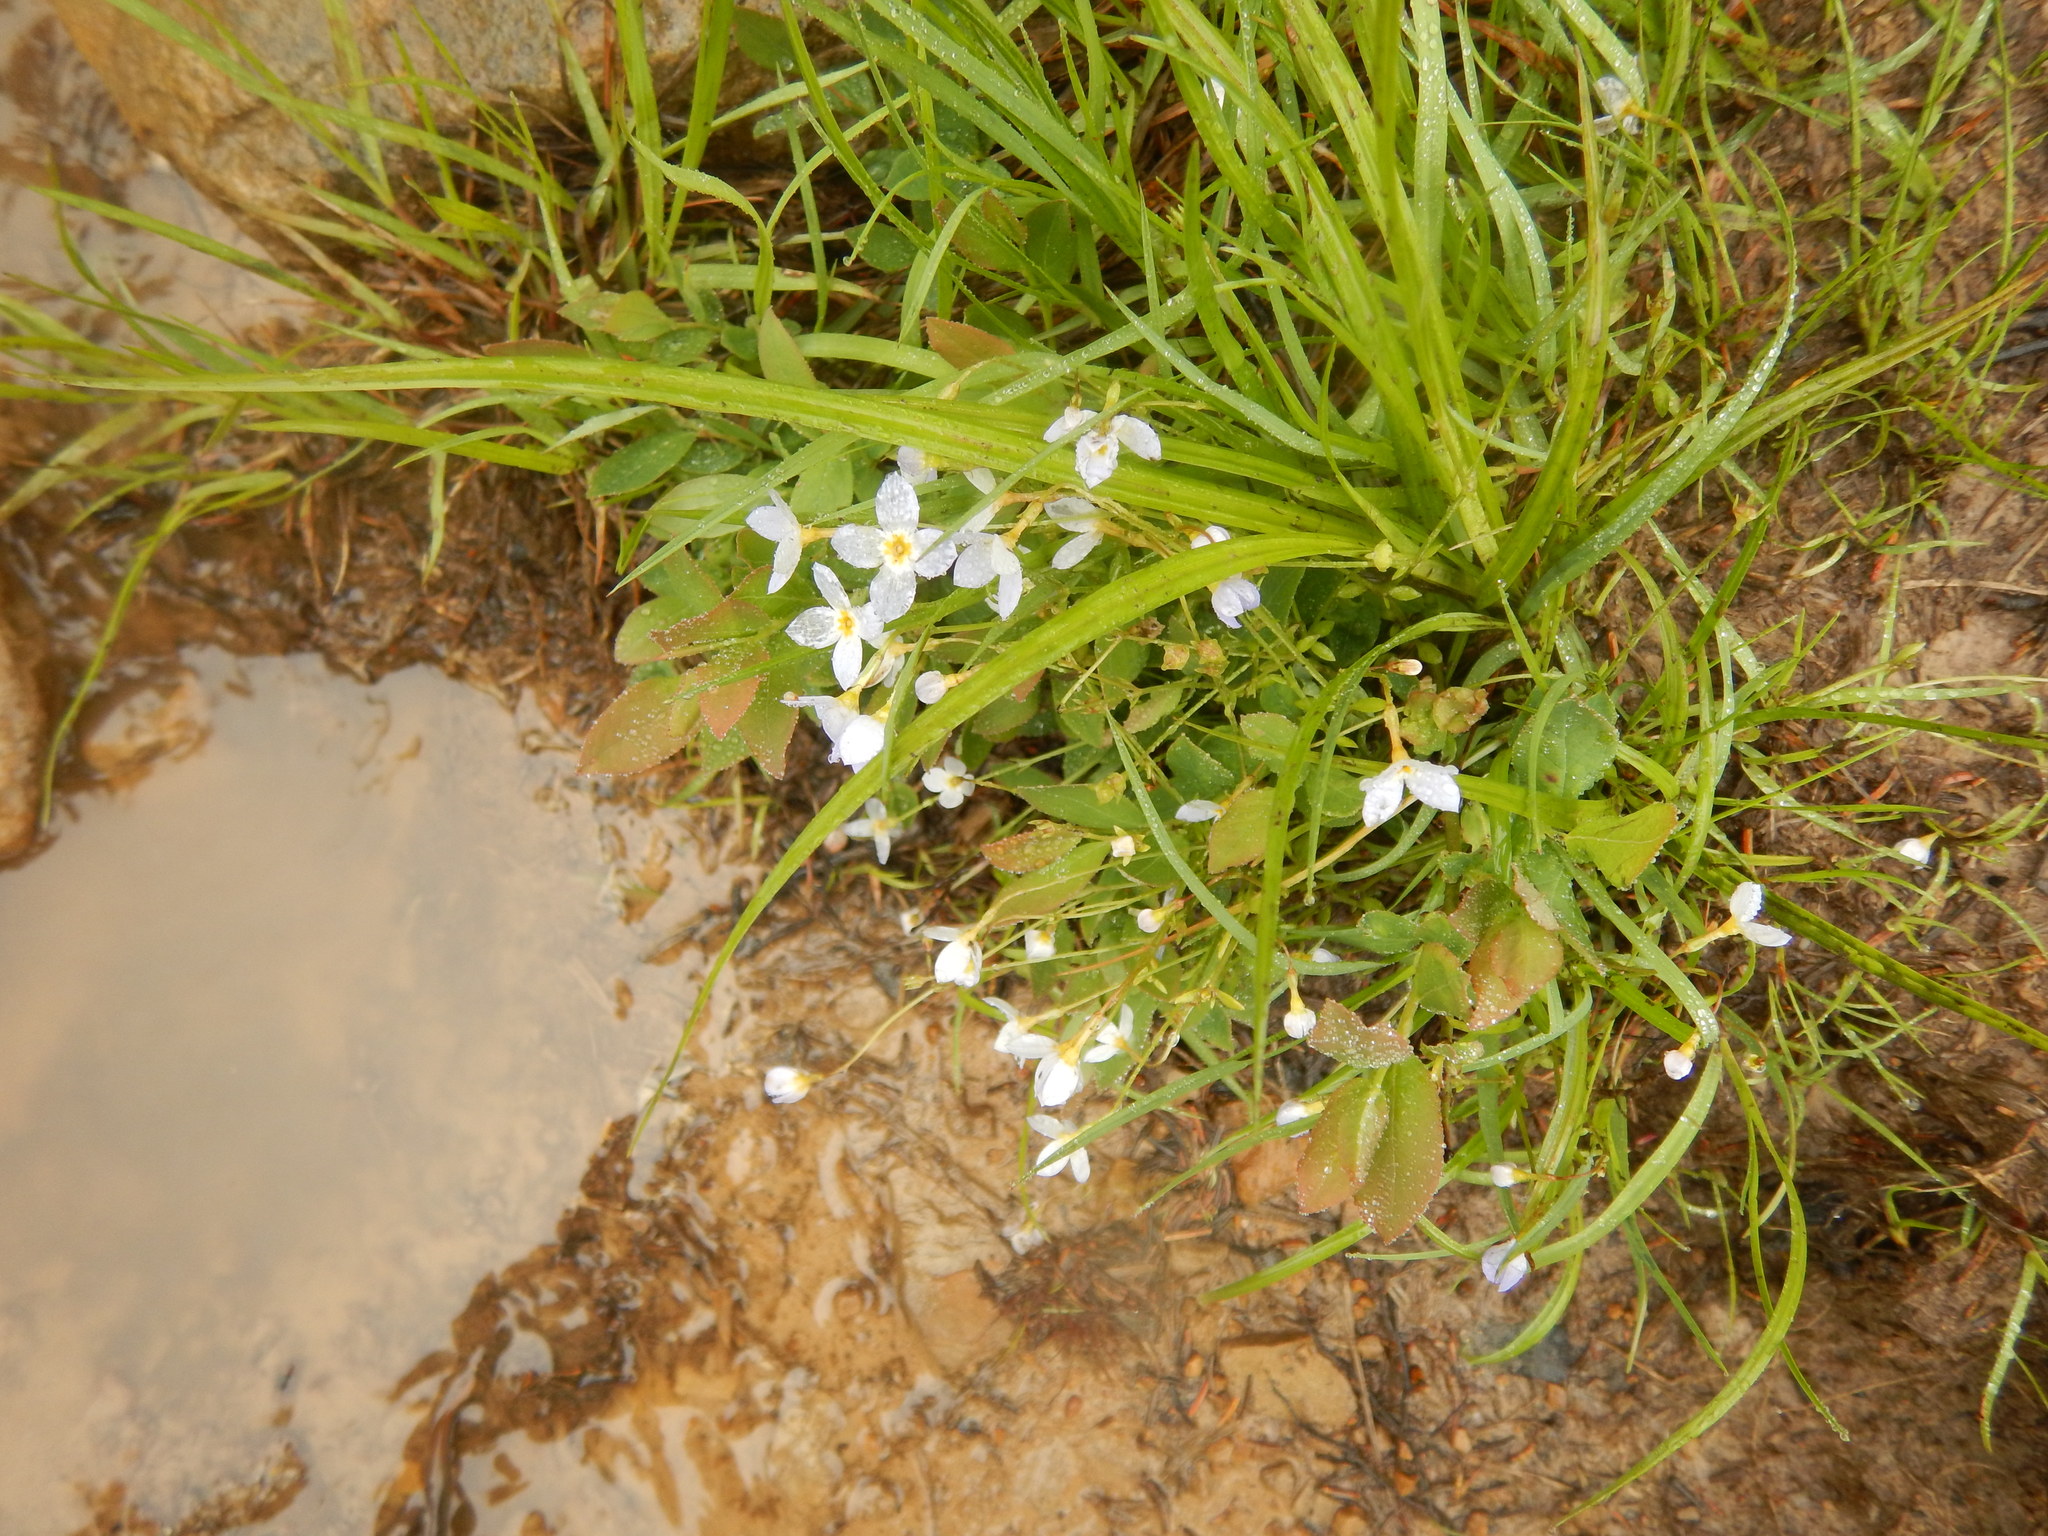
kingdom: Plantae
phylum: Tracheophyta
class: Magnoliopsida
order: Gentianales
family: Rubiaceae
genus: Houstonia
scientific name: Houstonia caerulea
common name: Bluets
